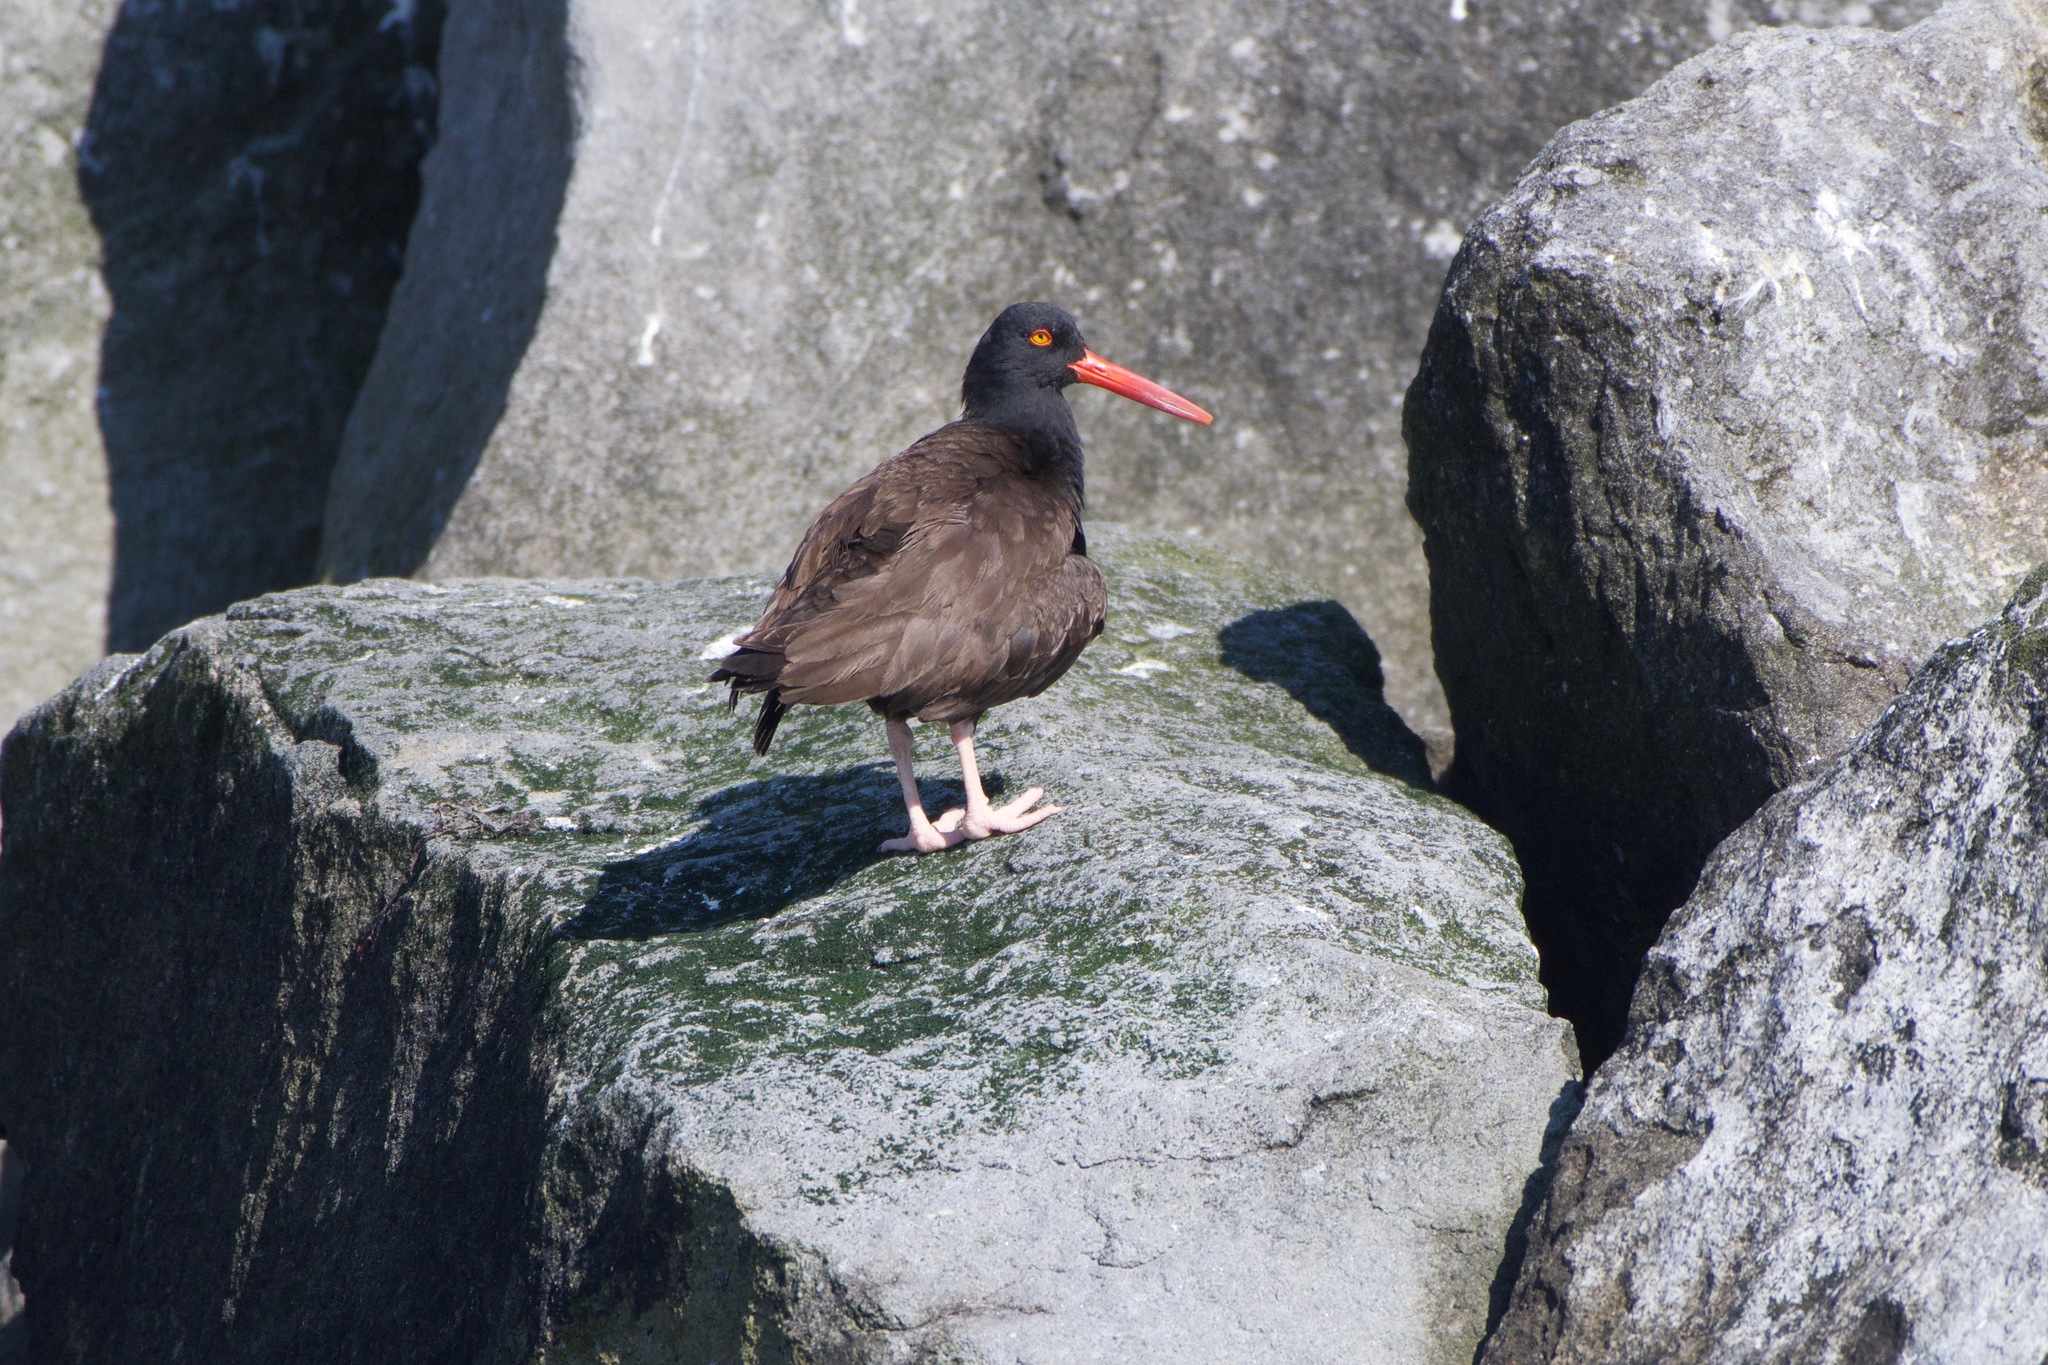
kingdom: Animalia
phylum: Chordata
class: Aves
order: Charadriiformes
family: Haematopodidae
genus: Haematopus
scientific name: Haematopus bachmani
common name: Black oystercatcher
